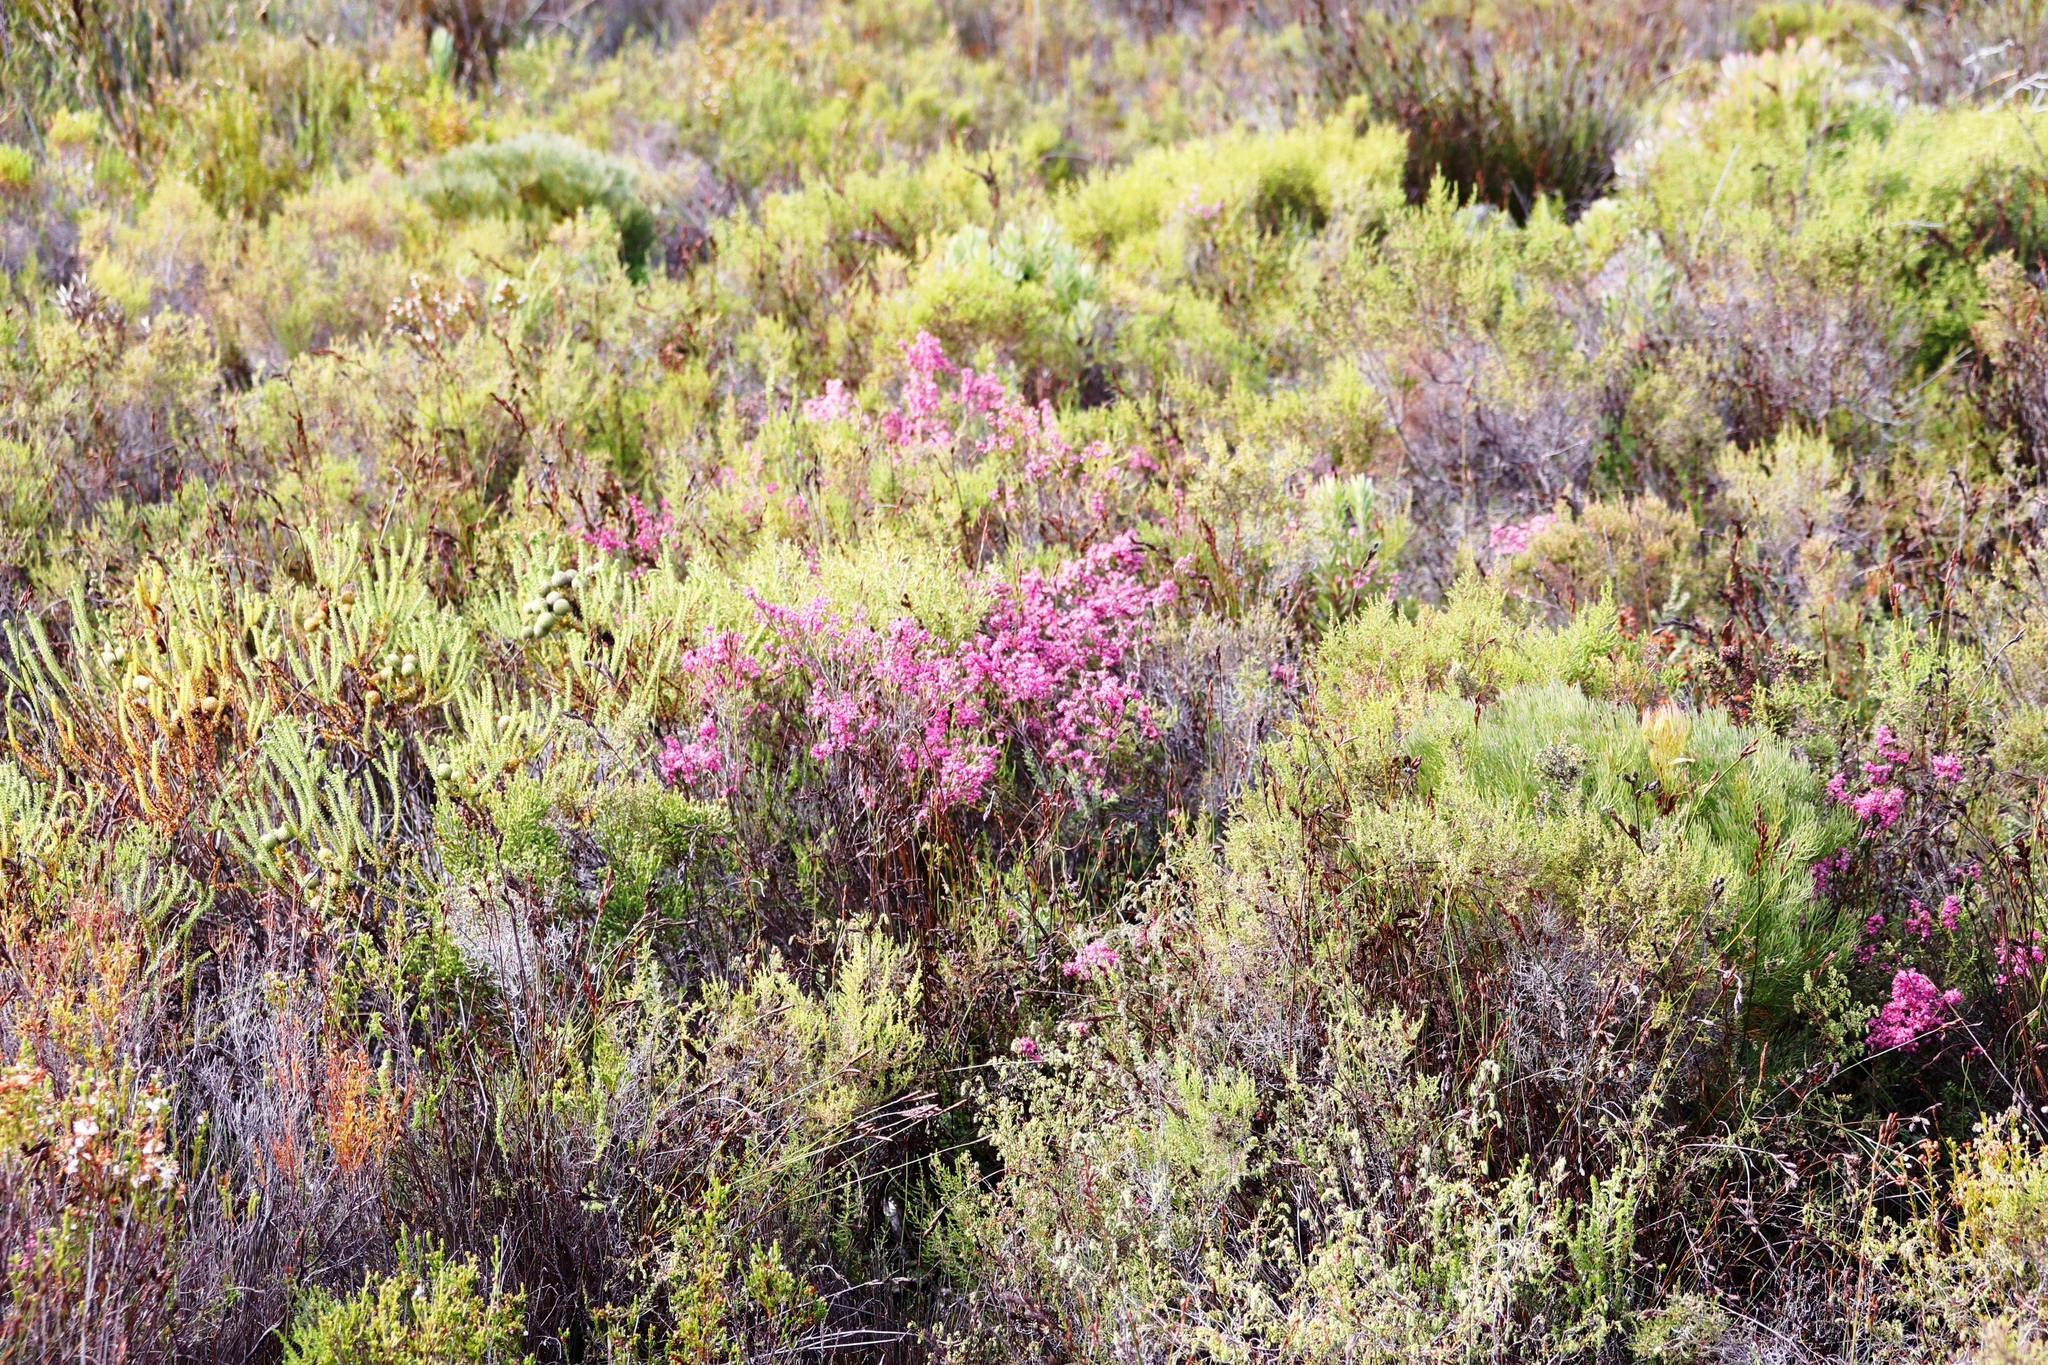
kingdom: Plantae
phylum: Tracheophyta
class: Magnoliopsida
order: Ericales
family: Ericaceae
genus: Erica
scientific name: Erica corifolia
